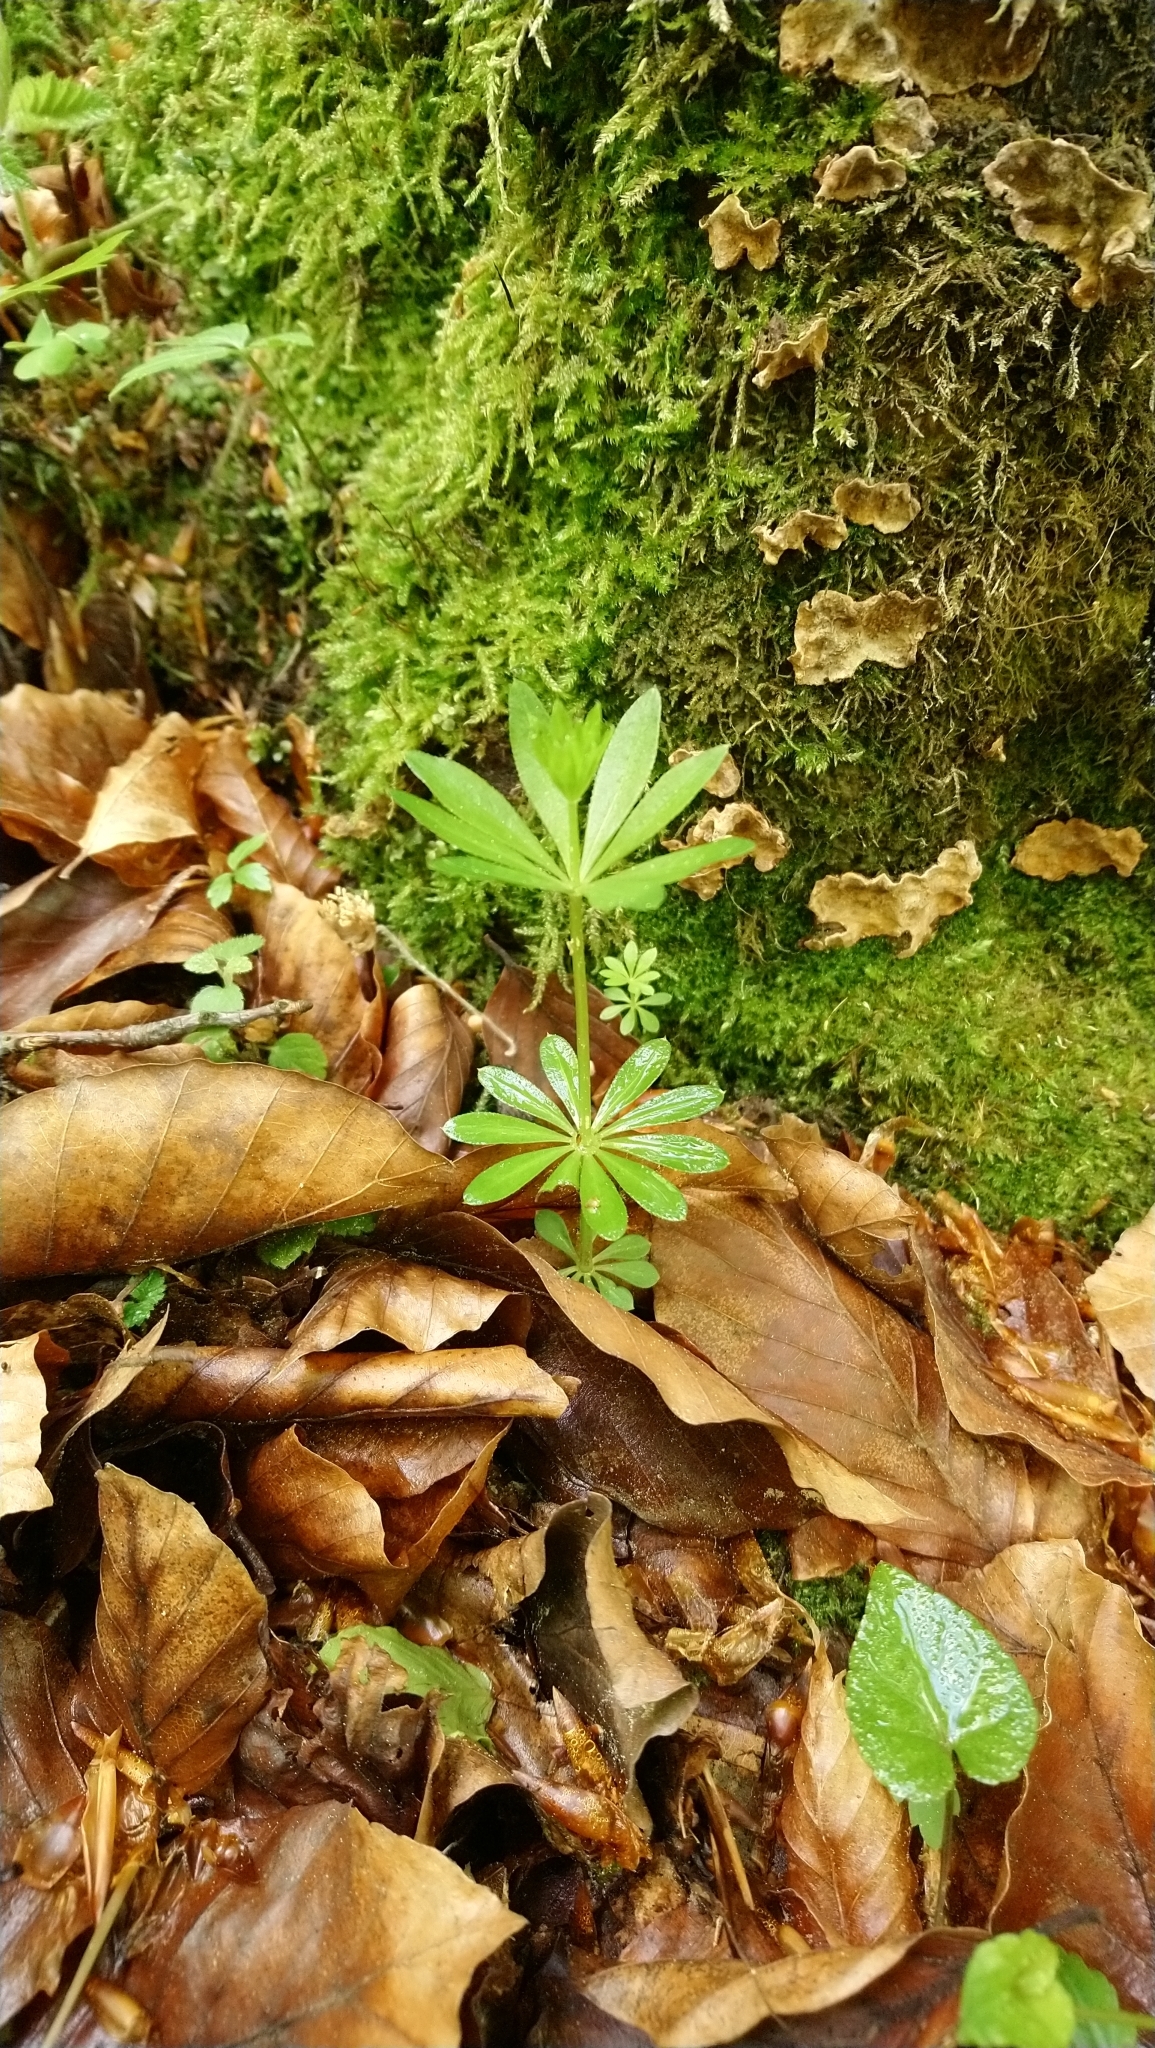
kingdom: Plantae
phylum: Tracheophyta
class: Magnoliopsida
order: Gentianales
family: Rubiaceae
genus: Galium
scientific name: Galium odoratum
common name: Sweet woodruff
